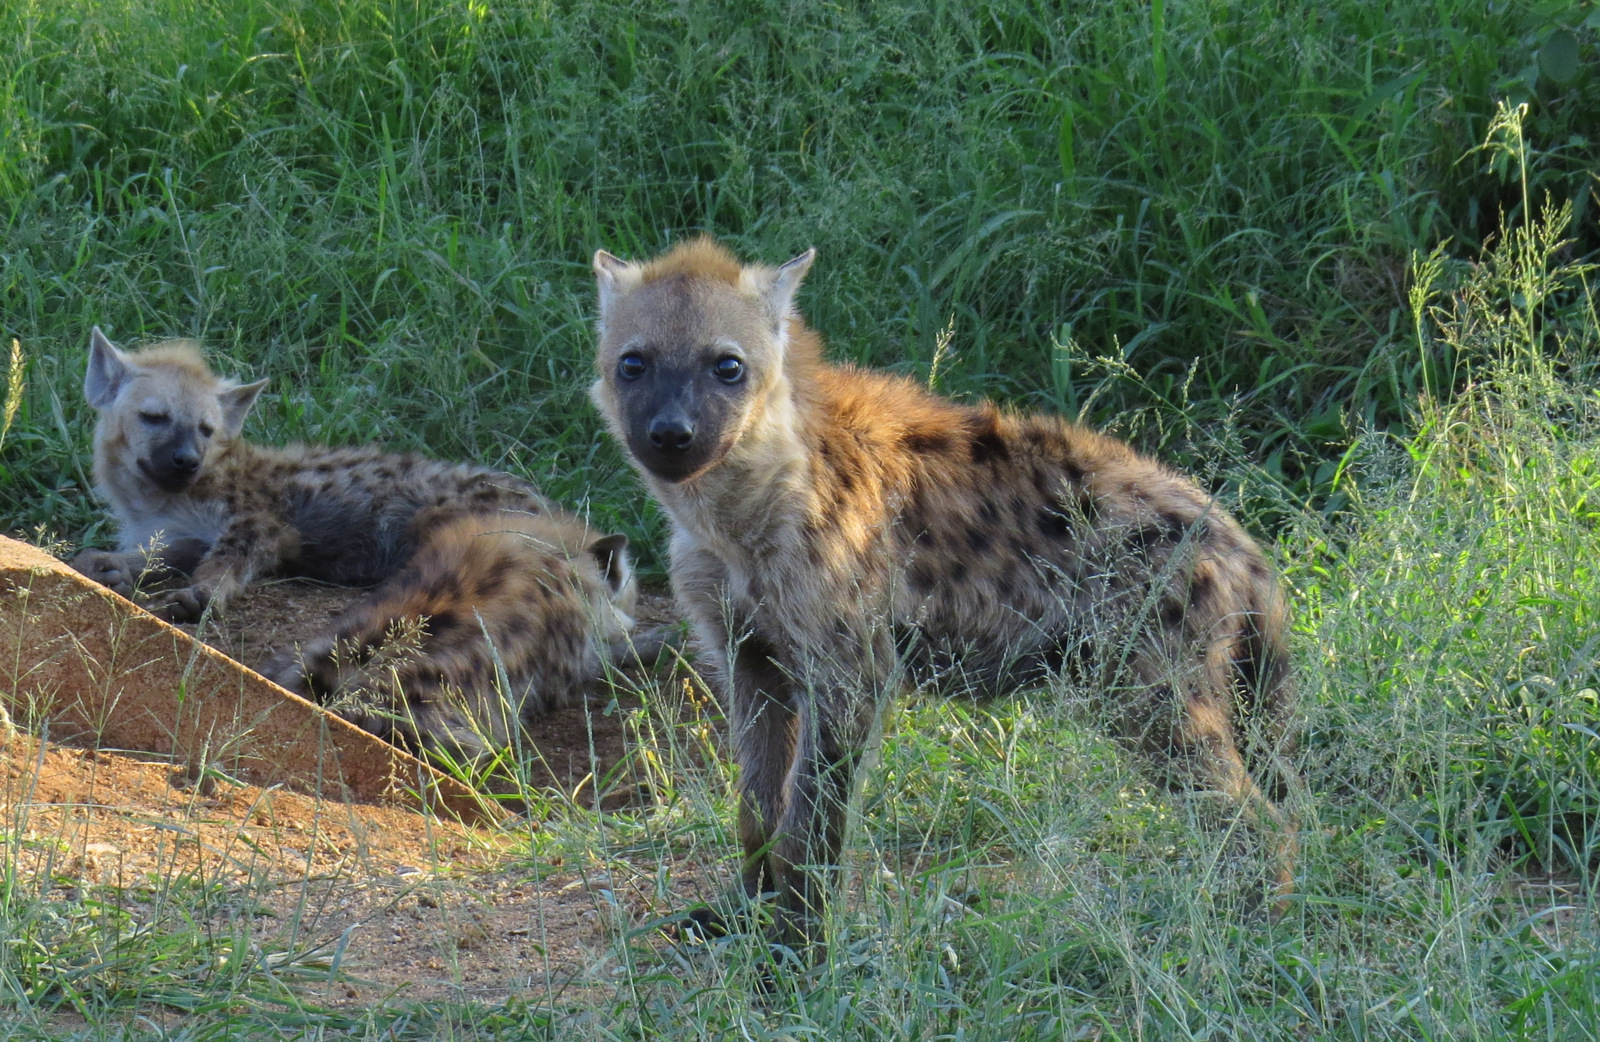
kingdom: Animalia
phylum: Chordata
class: Mammalia
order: Carnivora
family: Hyaenidae
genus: Crocuta
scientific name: Crocuta crocuta
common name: Spotted hyaena
